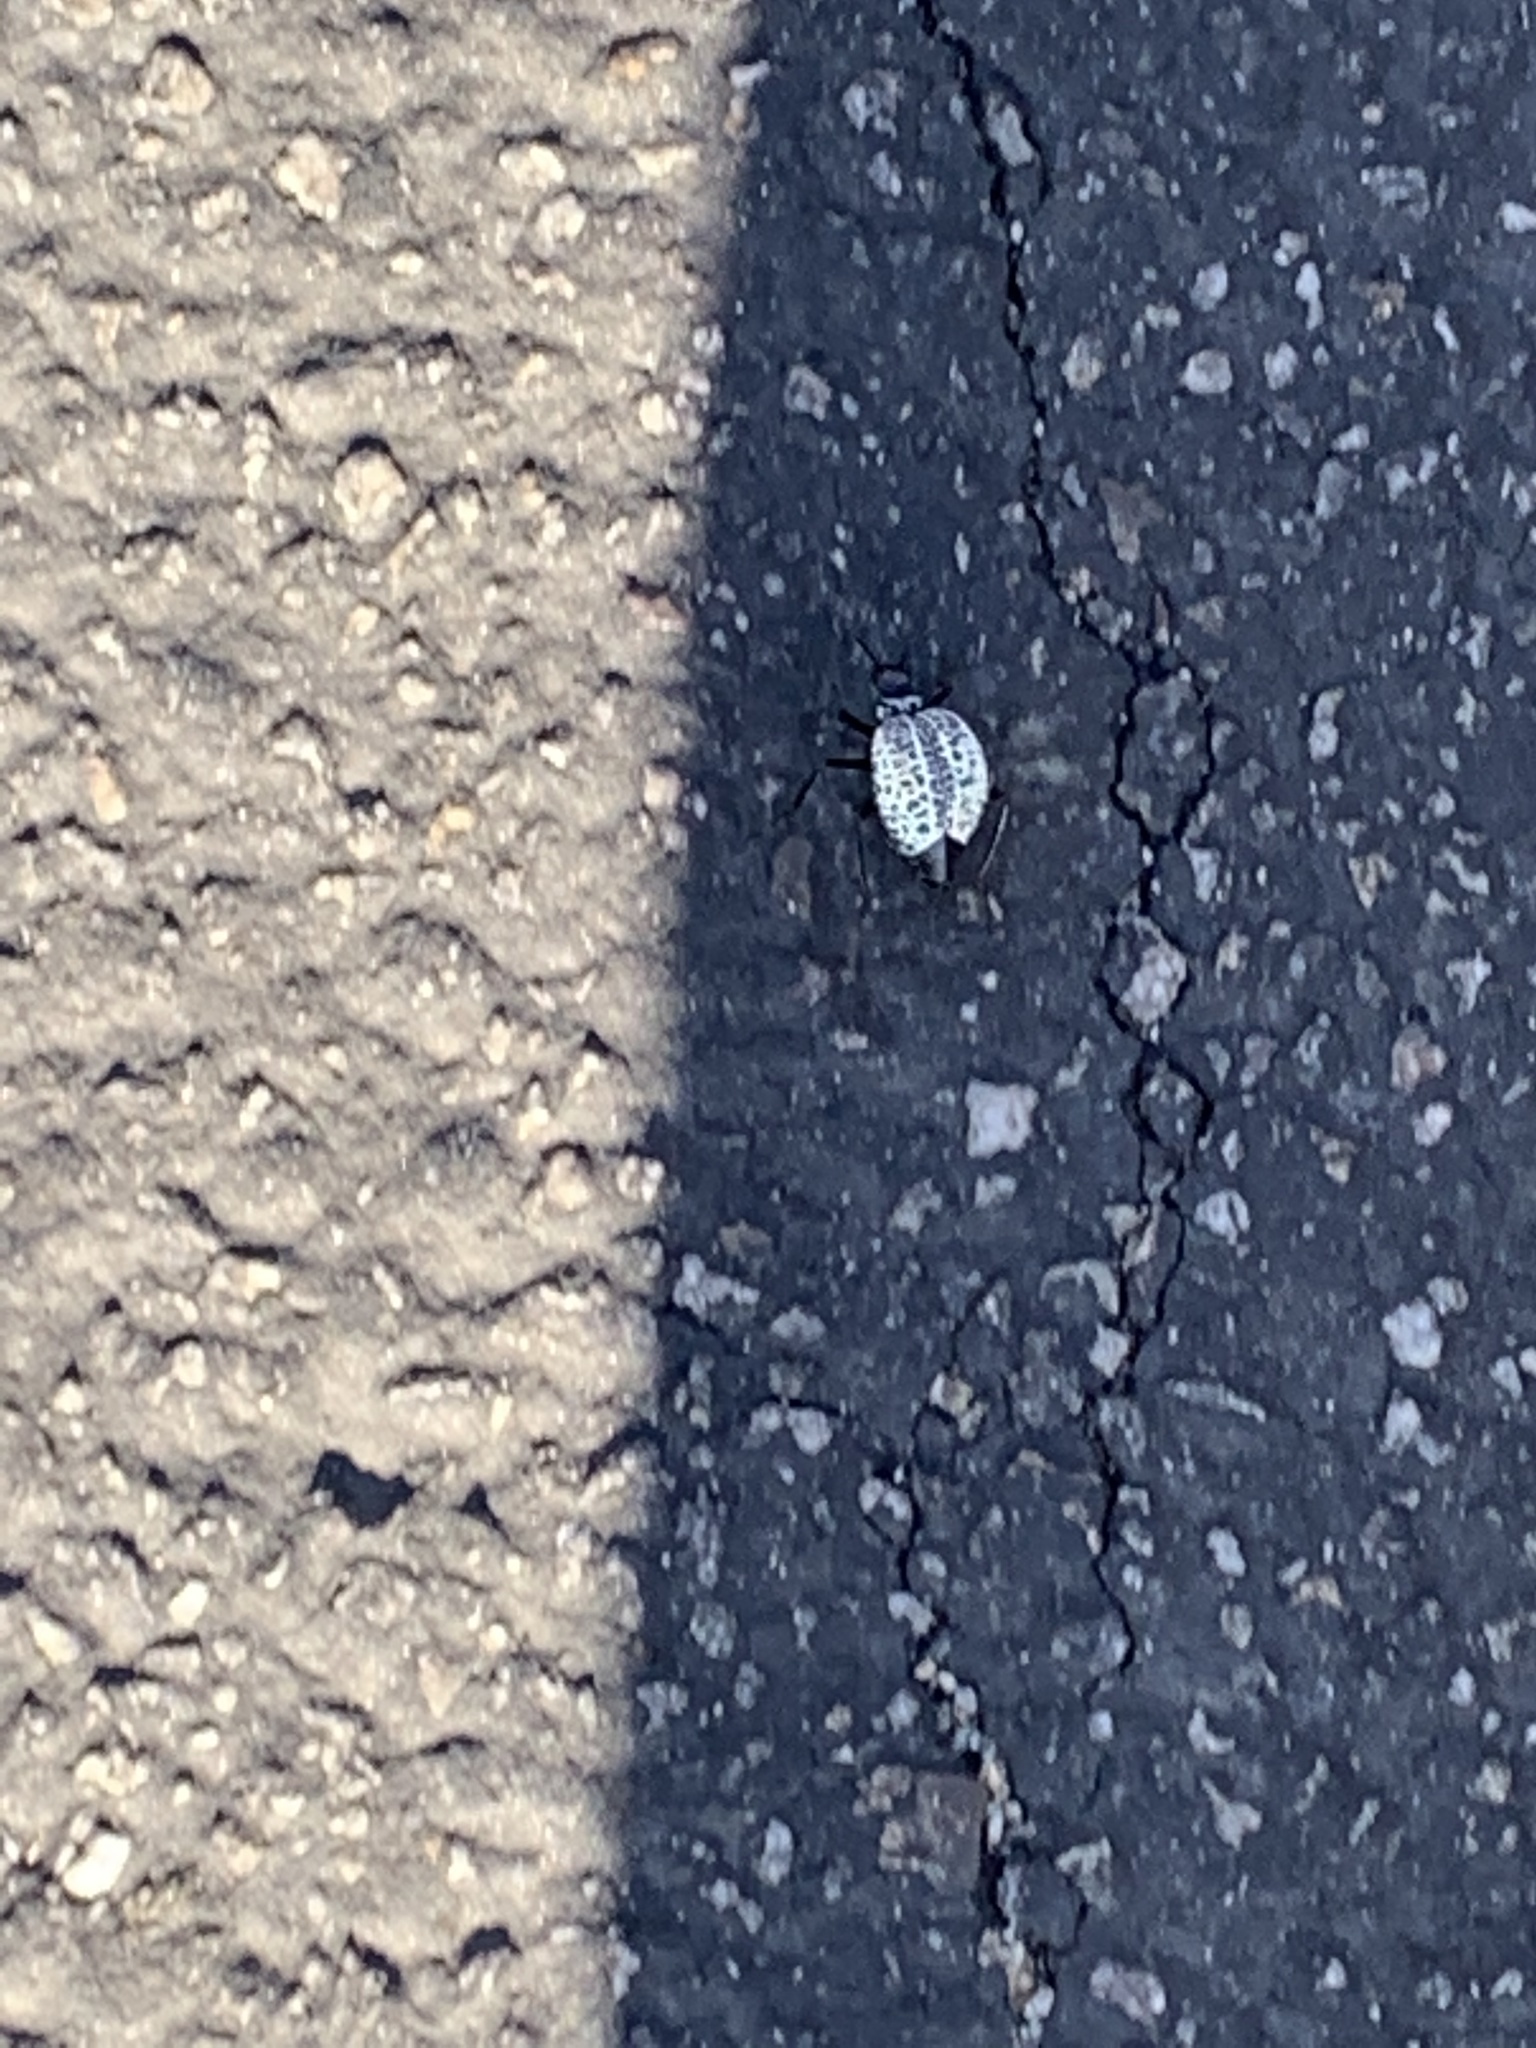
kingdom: Animalia
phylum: Arthropoda
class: Insecta
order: Coleoptera
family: Meloidae
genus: Cysteodemus
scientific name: Cysteodemus armatus
